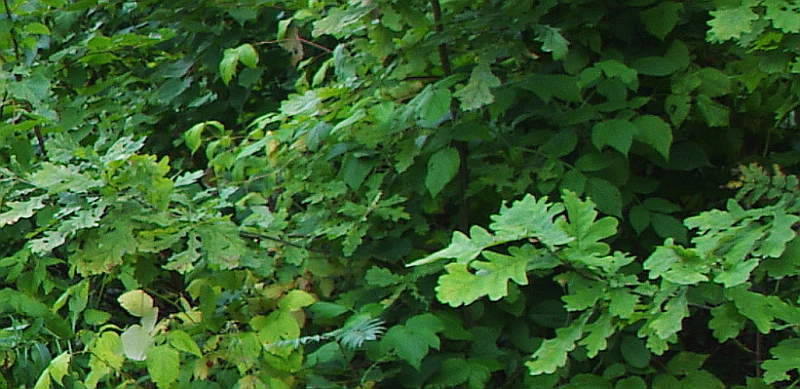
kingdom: Plantae
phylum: Tracheophyta
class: Magnoliopsida
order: Fagales
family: Fagaceae
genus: Quercus
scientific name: Quercus robur
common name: Pedunculate oak
